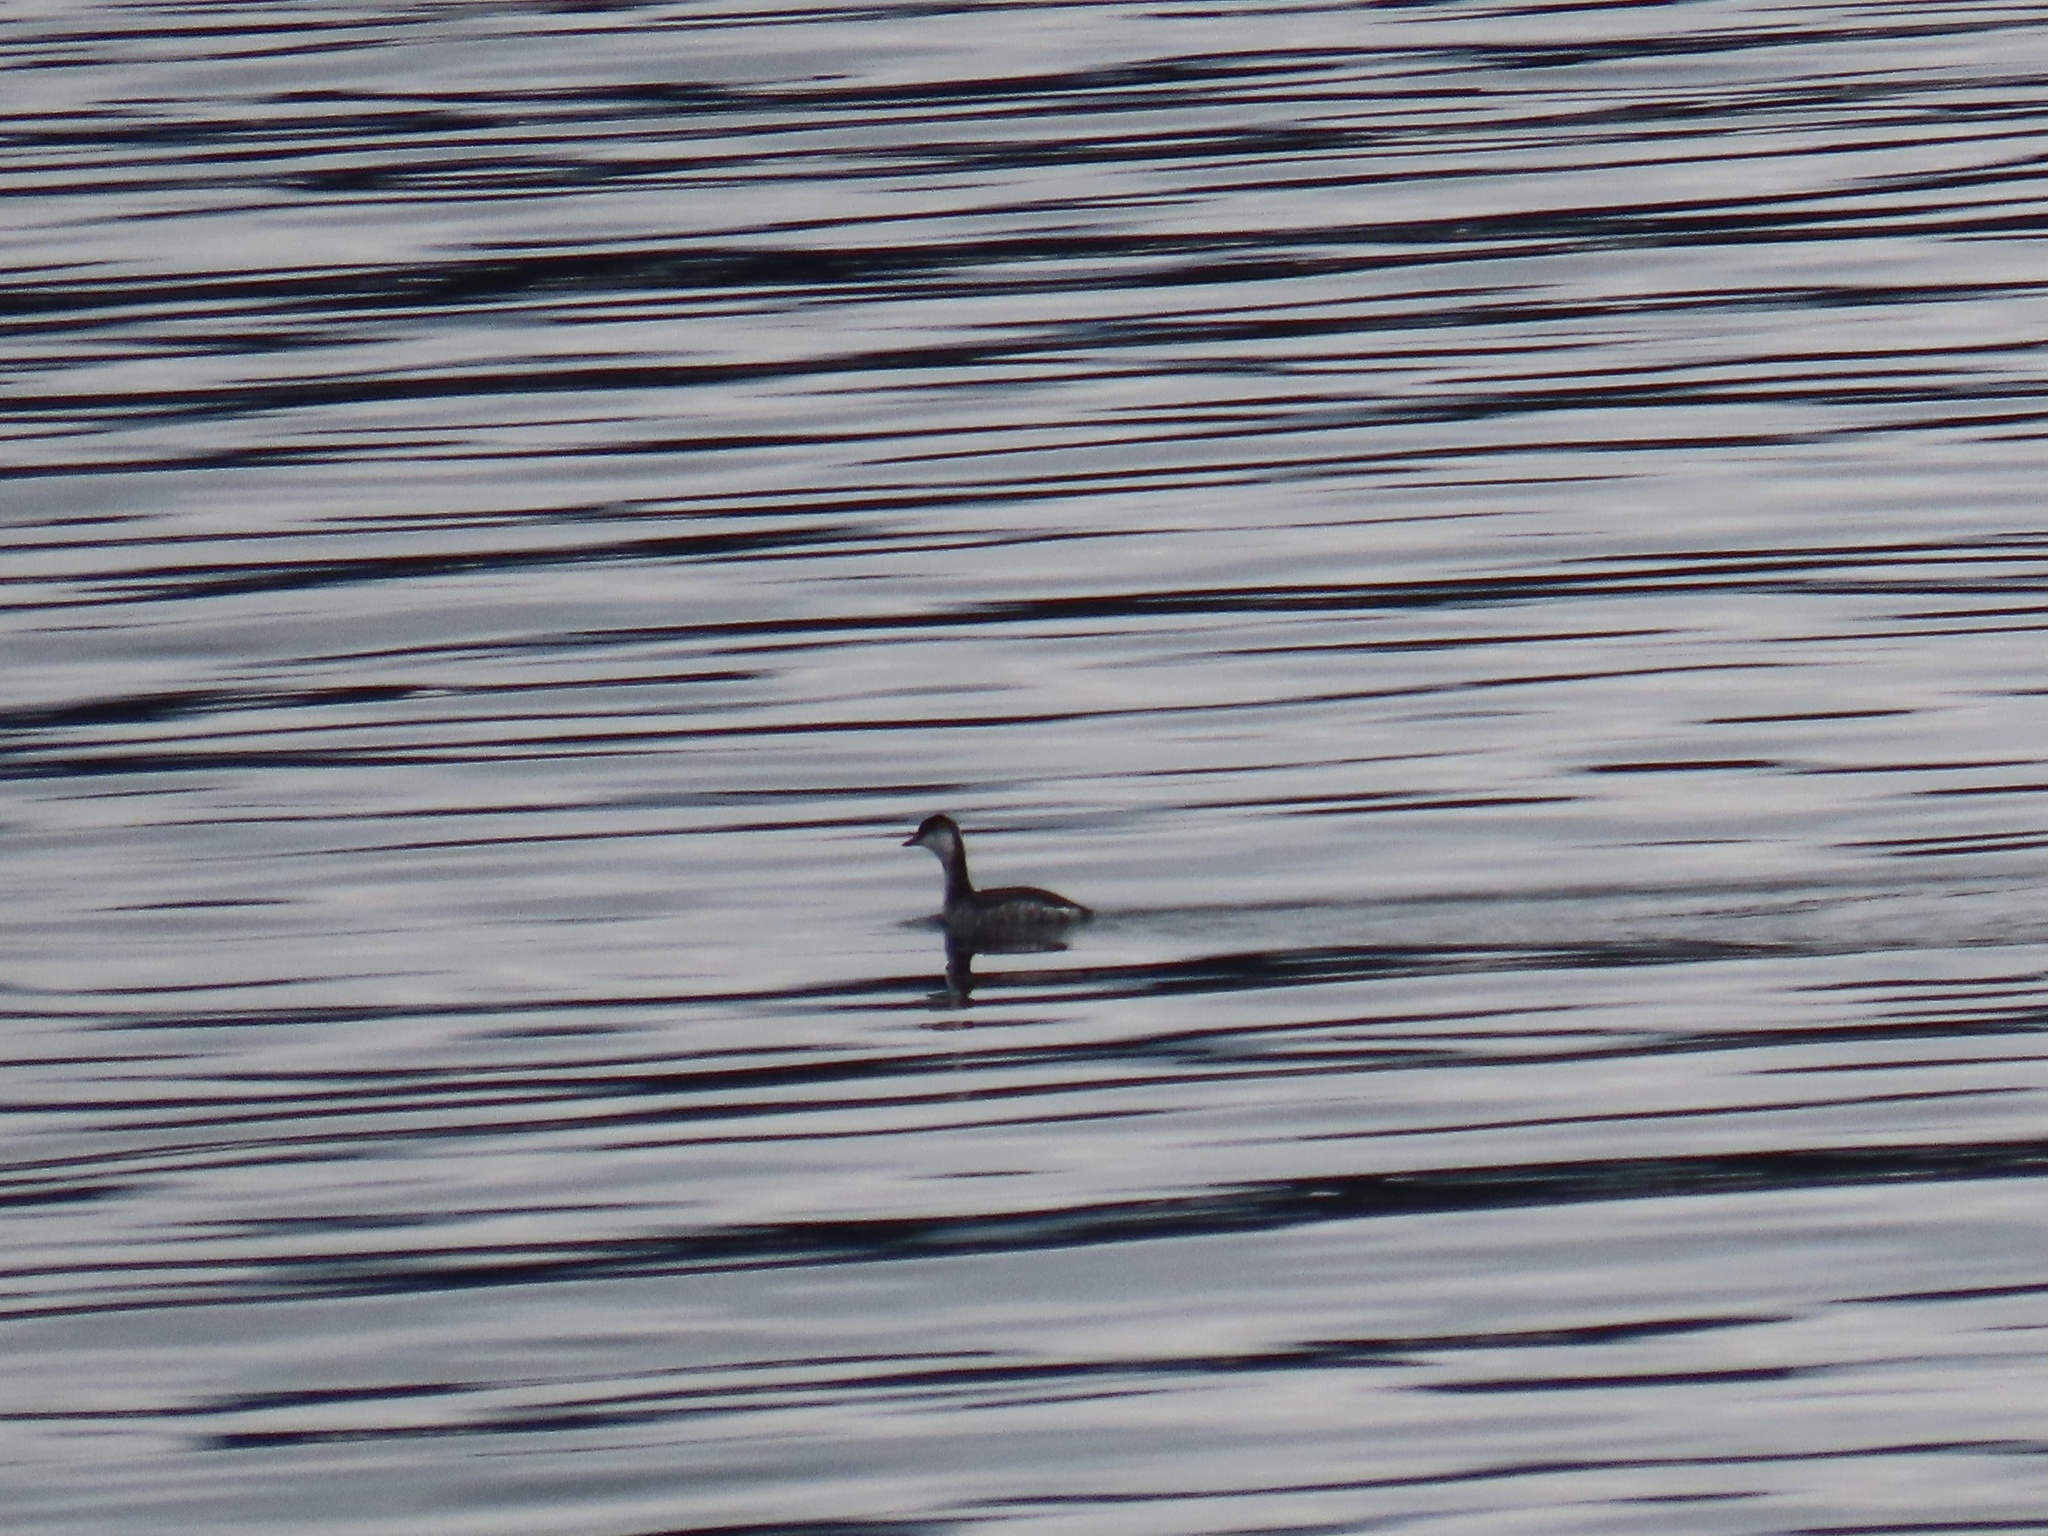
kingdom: Animalia
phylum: Chordata
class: Aves
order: Podicipediformes
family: Podicipedidae
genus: Podiceps
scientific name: Podiceps auritus
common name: Horned grebe
